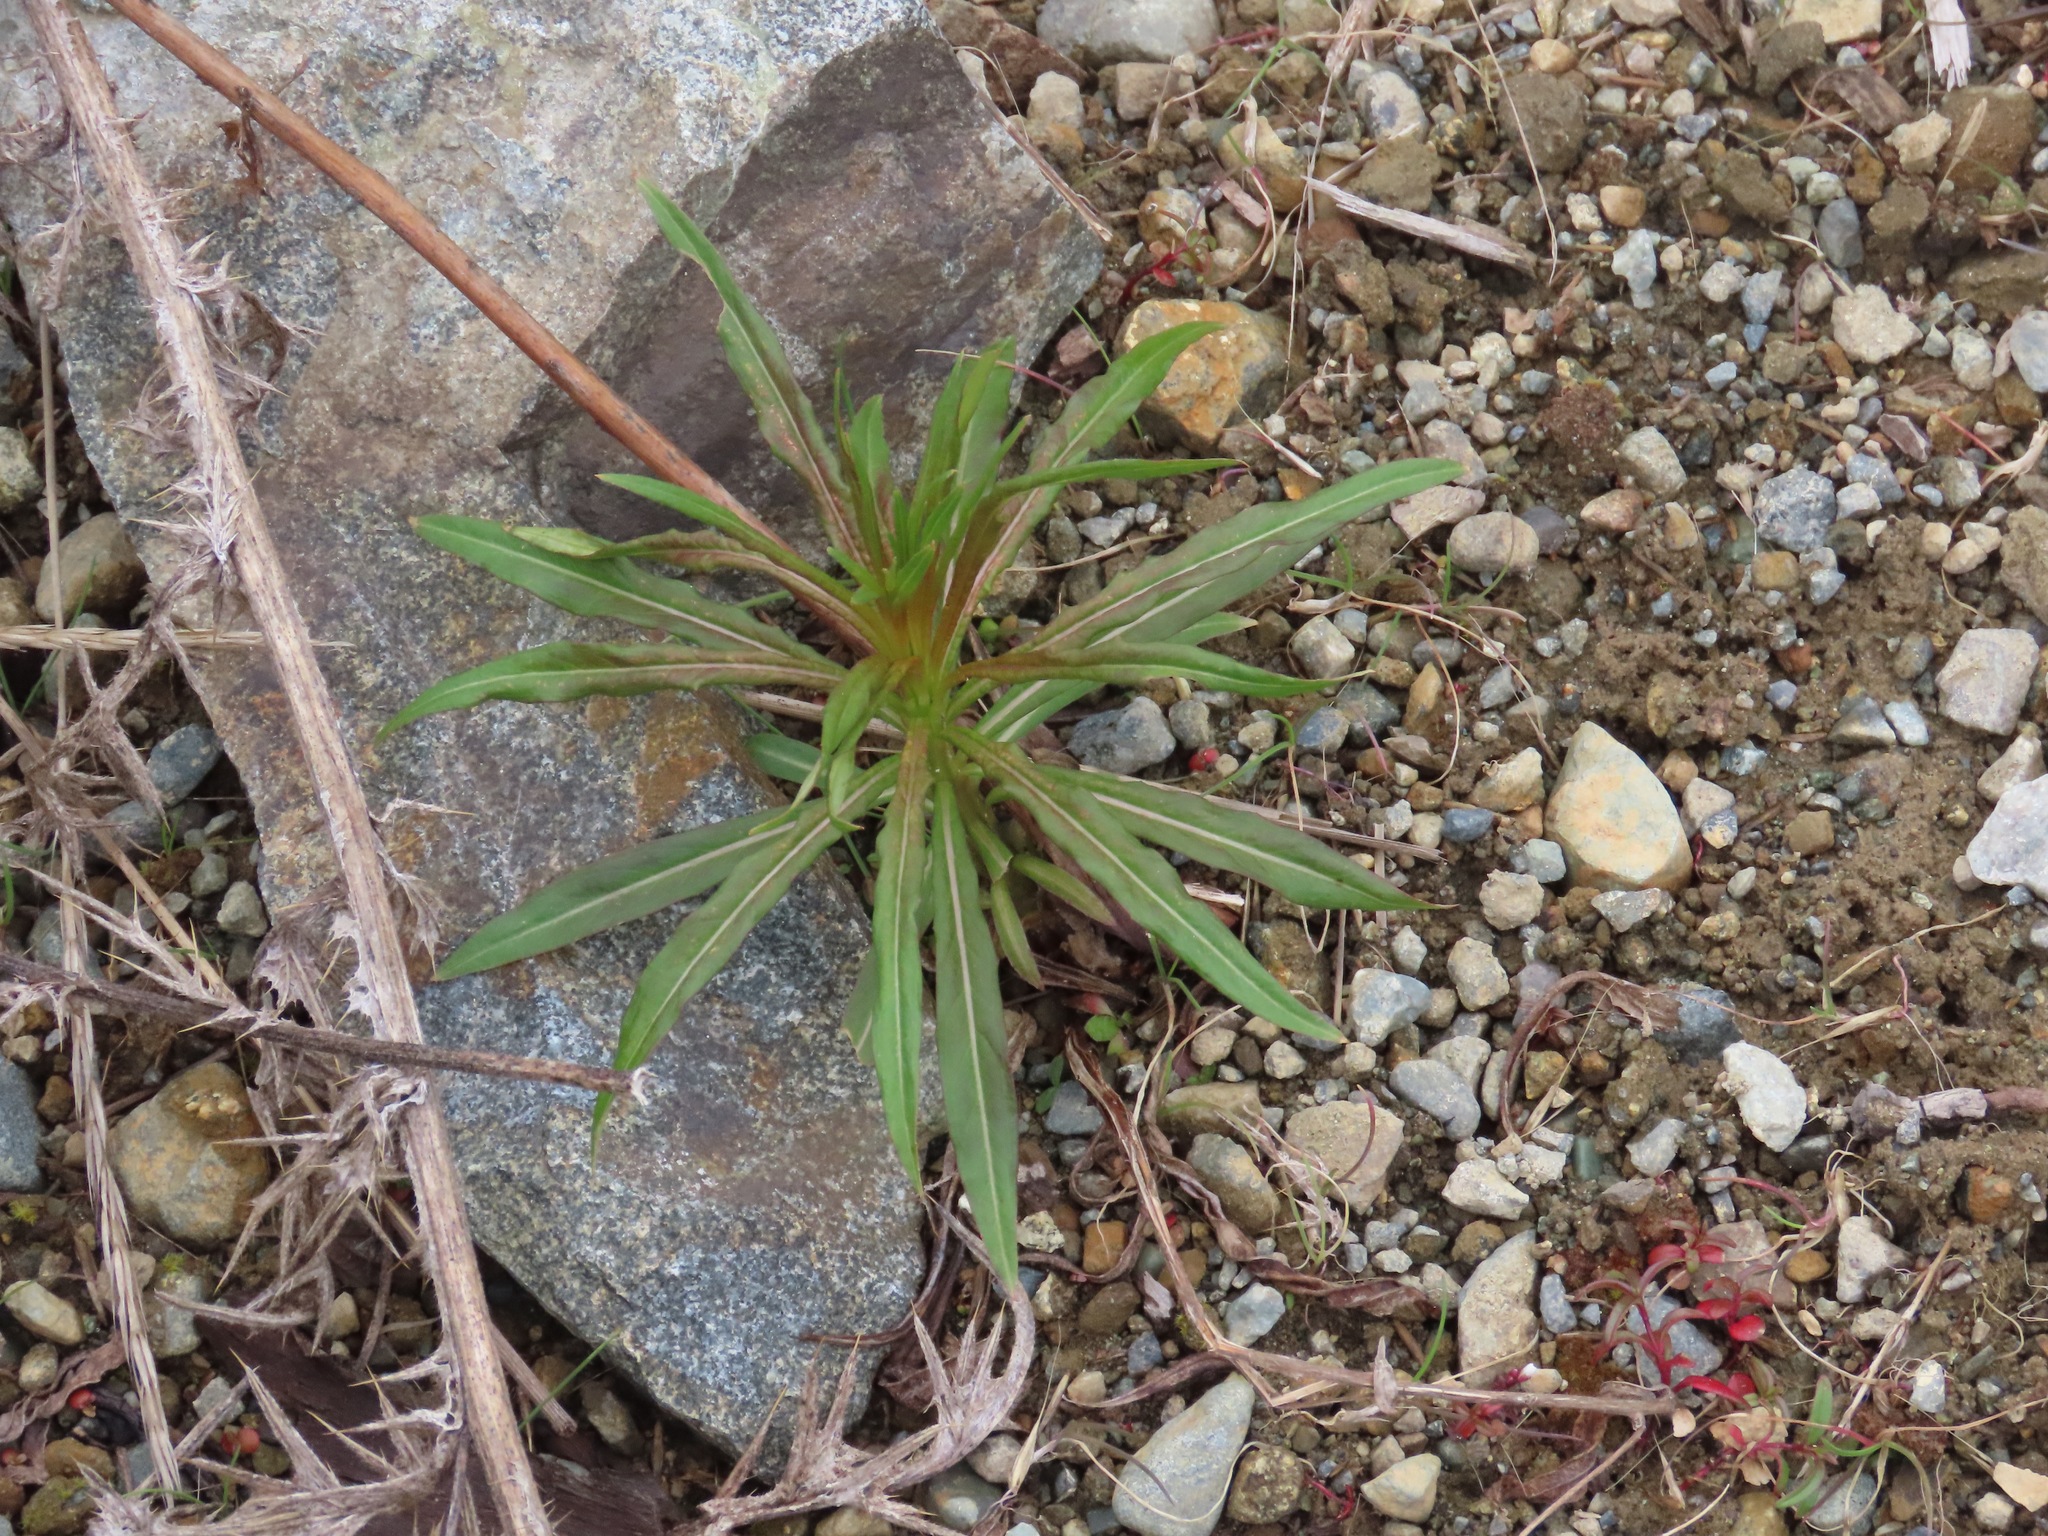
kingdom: Plantae
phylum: Tracheophyta
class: Magnoliopsida
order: Myrtales
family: Onagraceae
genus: Chamaenerion
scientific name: Chamaenerion angustifolium
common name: Fireweed
